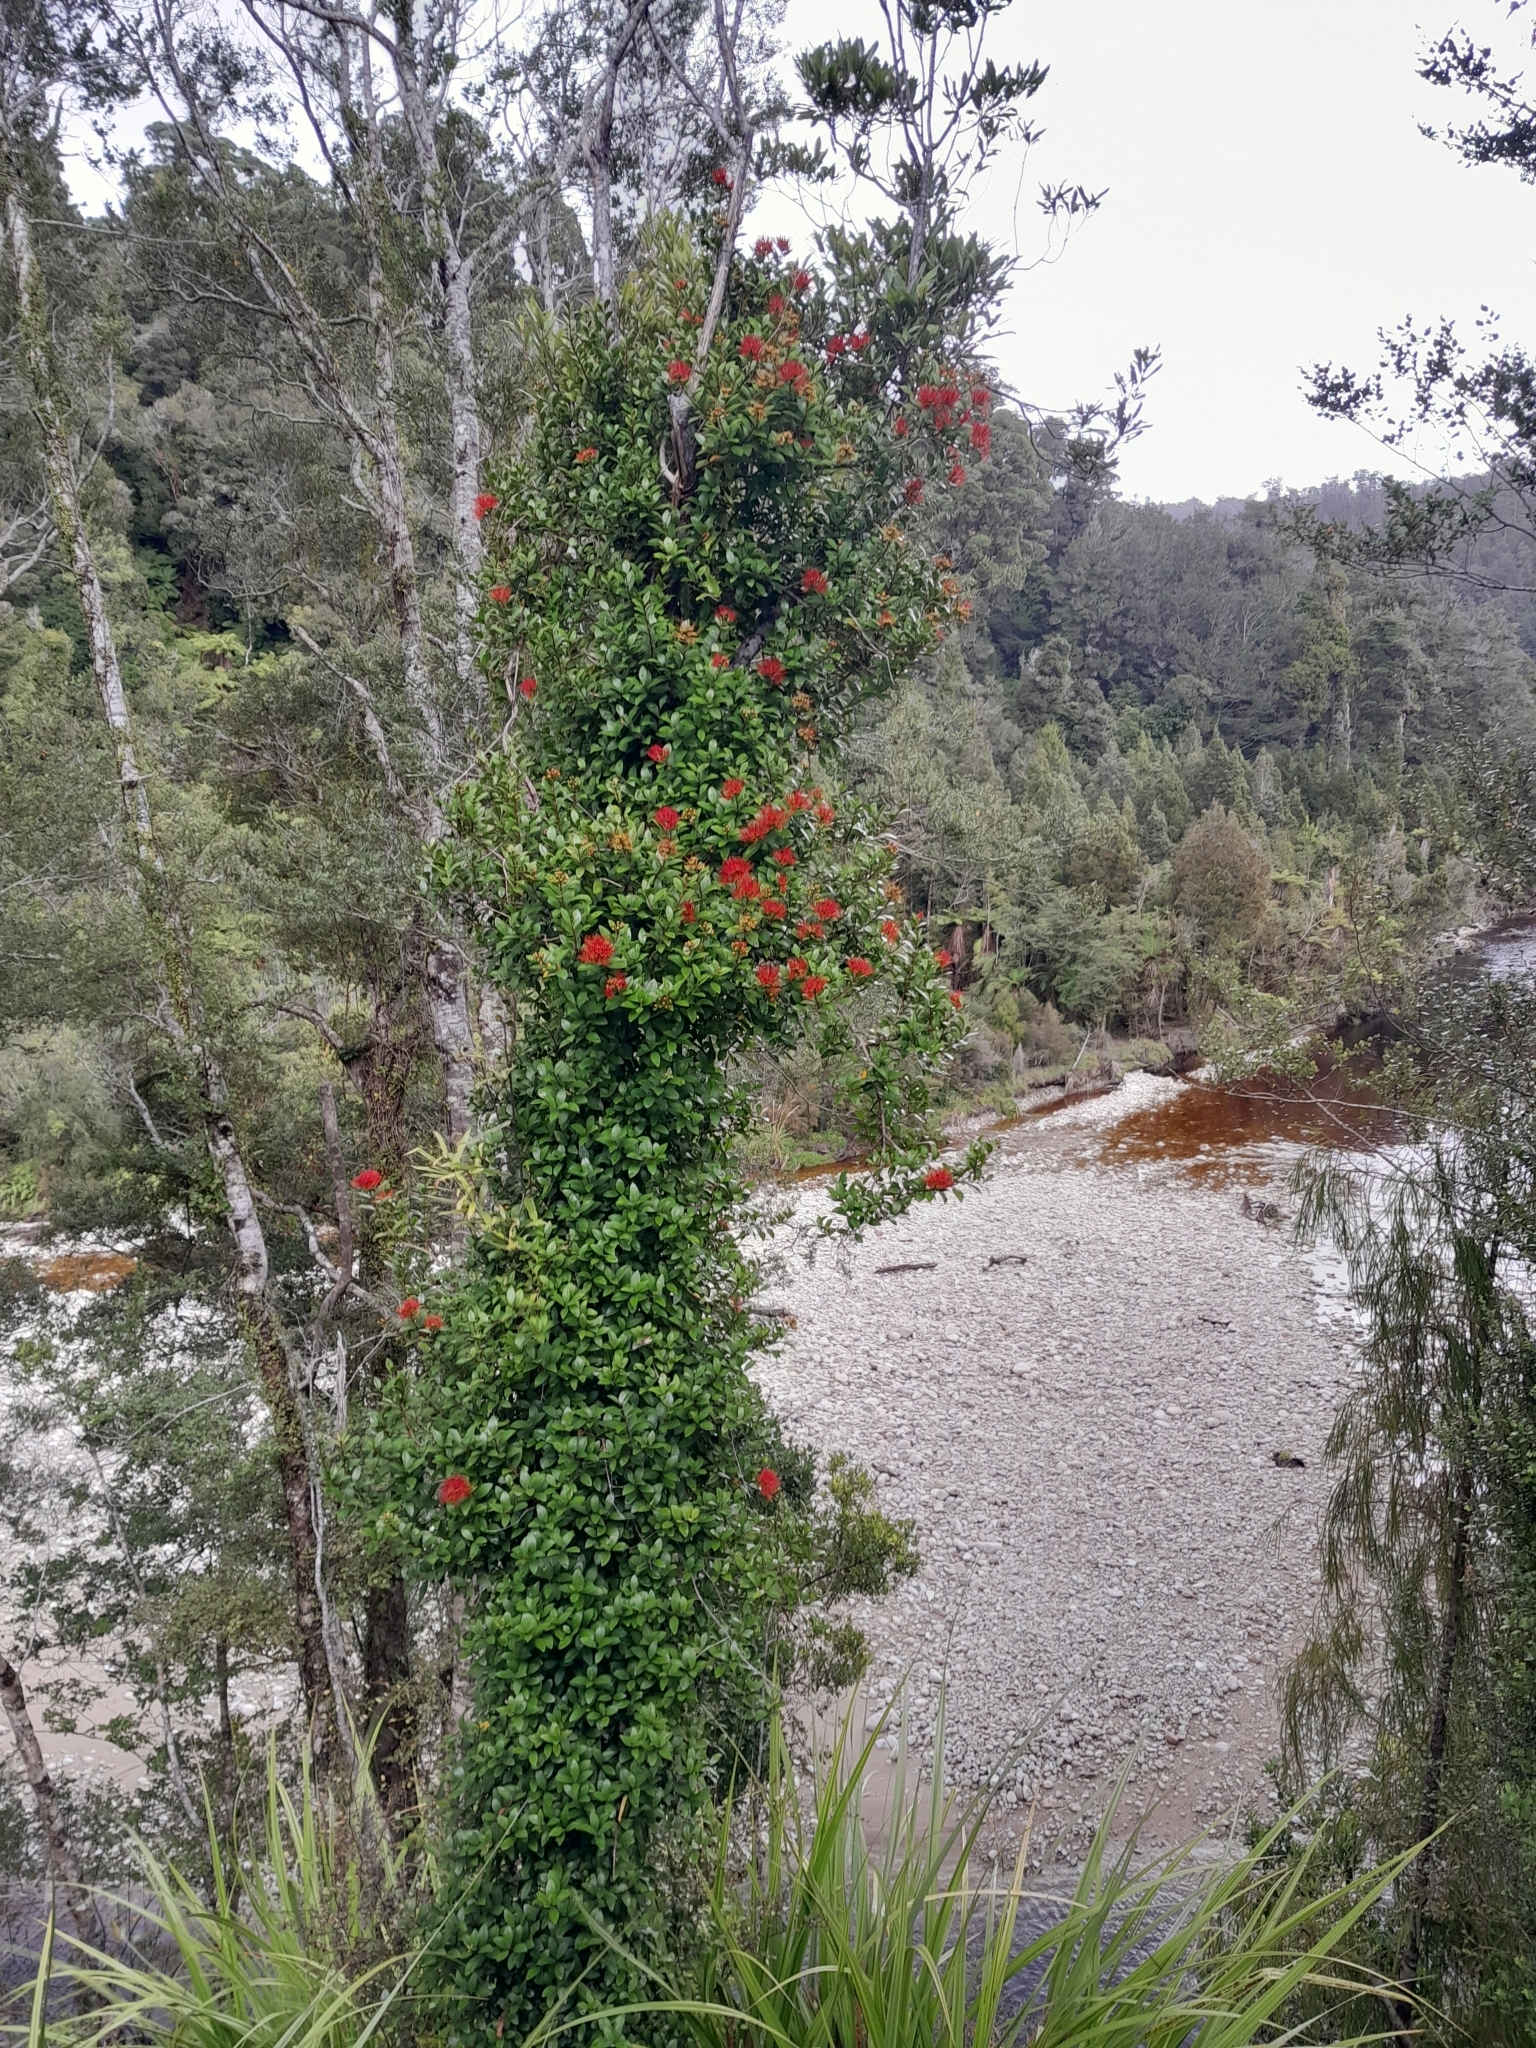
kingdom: Plantae
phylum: Tracheophyta
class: Magnoliopsida
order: Myrtales
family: Myrtaceae
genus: Metrosideros
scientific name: Metrosideros fulgens
